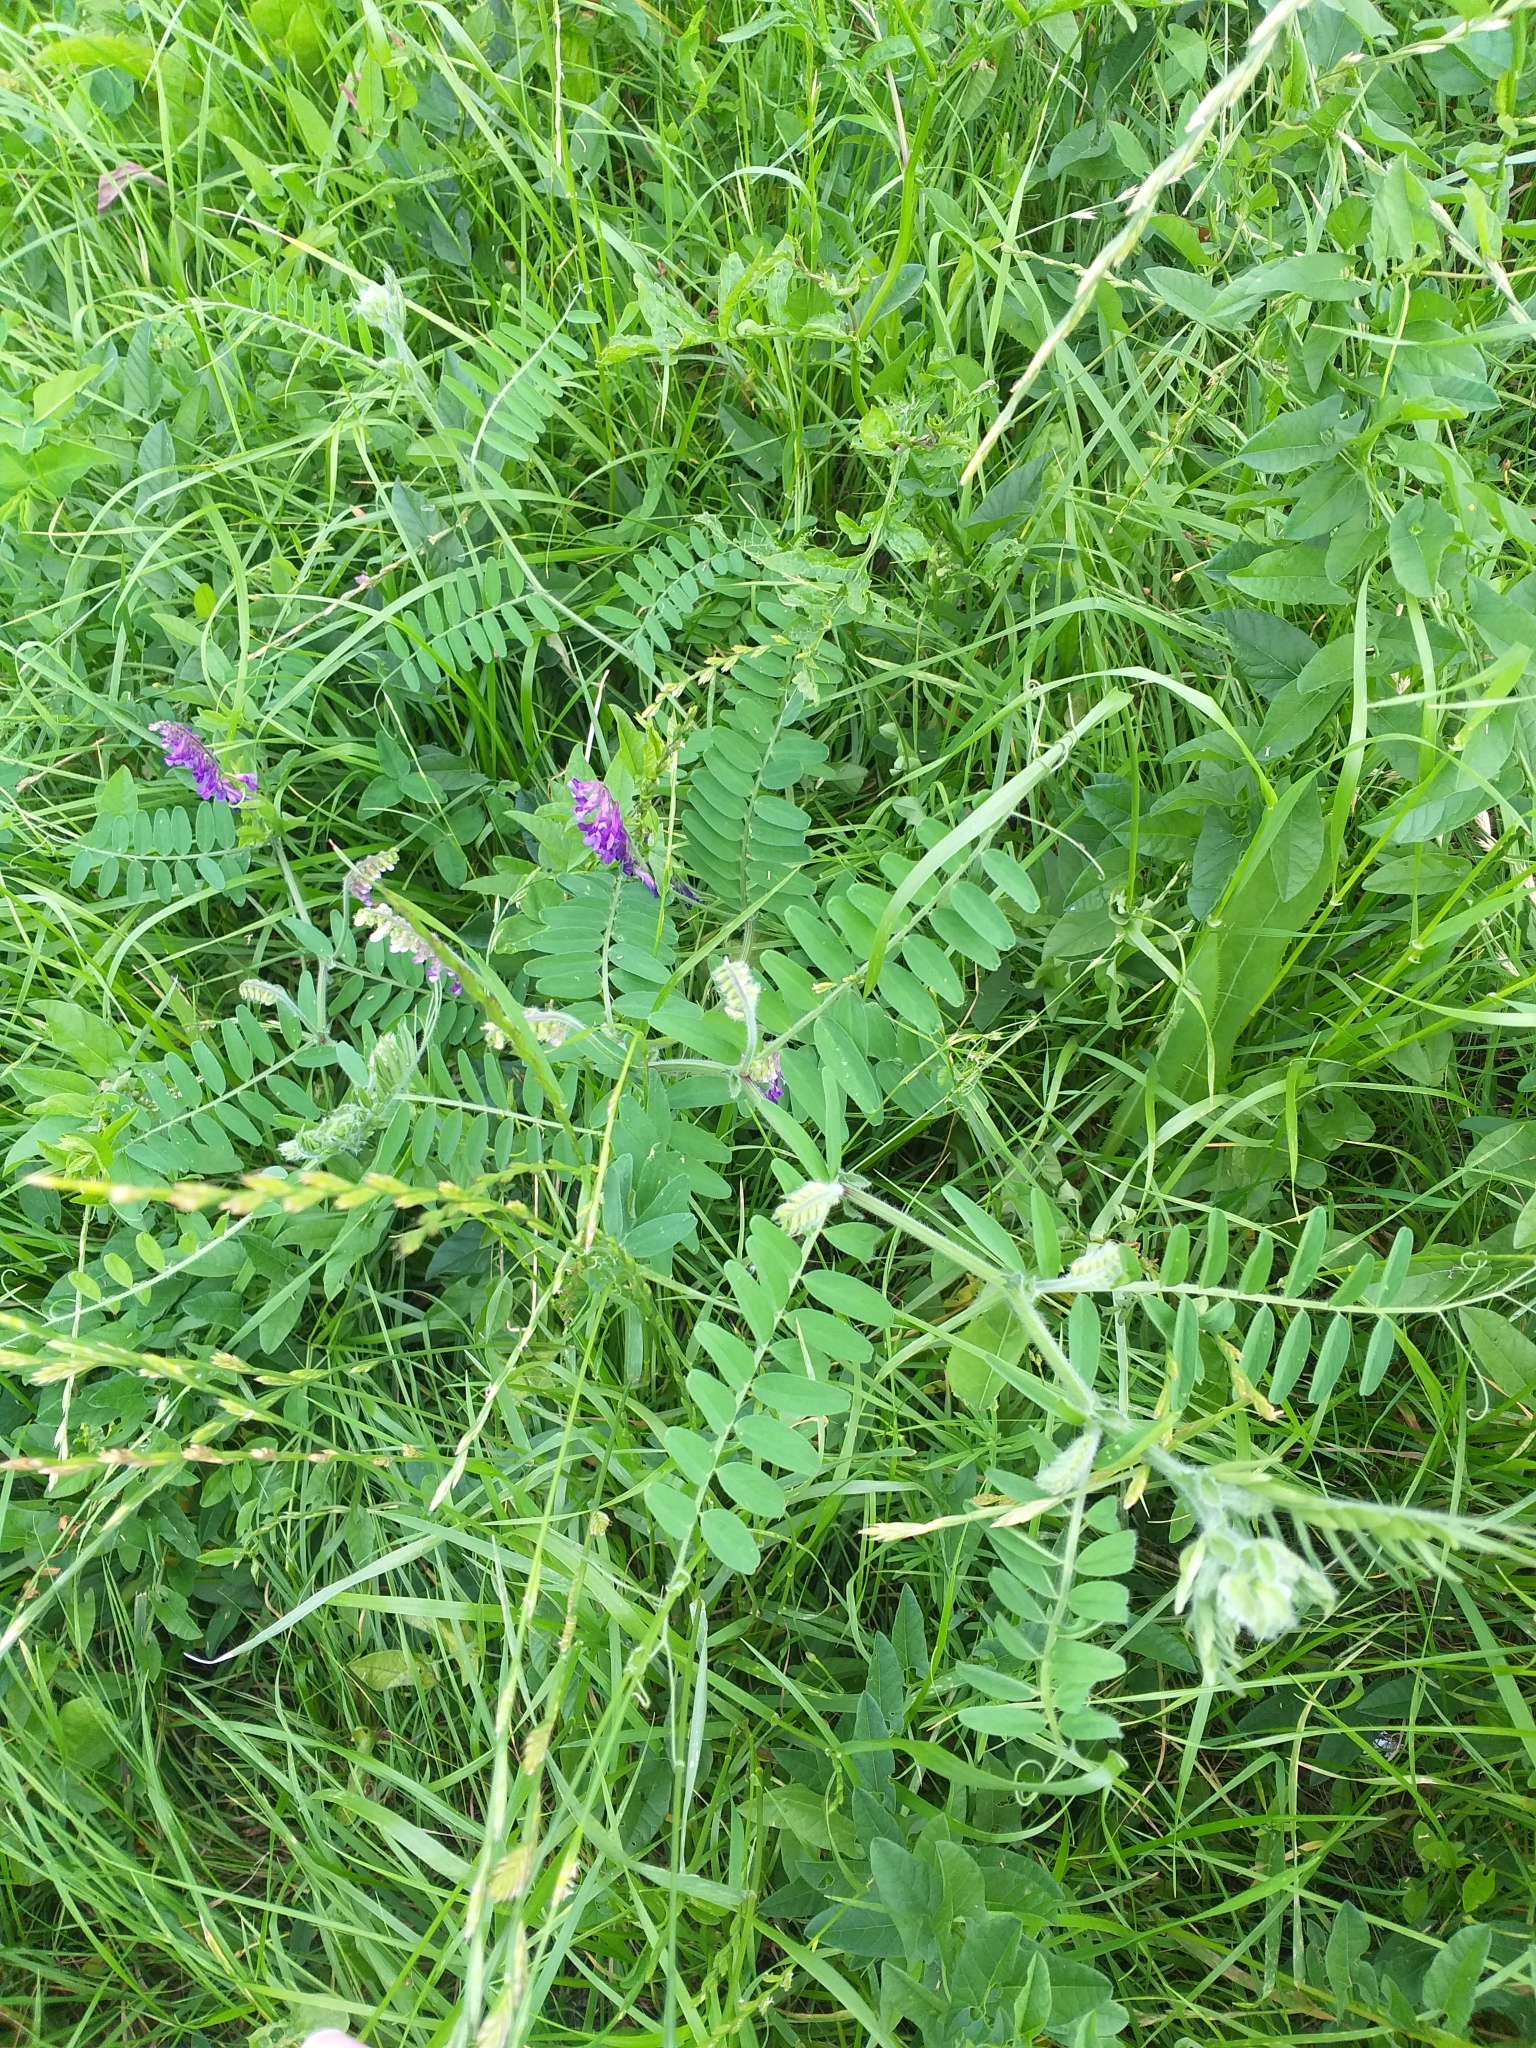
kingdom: Plantae
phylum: Tracheophyta
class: Magnoliopsida
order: Fabales
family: Fabaceae
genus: Vicia
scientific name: Vicia villosa
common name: Fodder vetch
